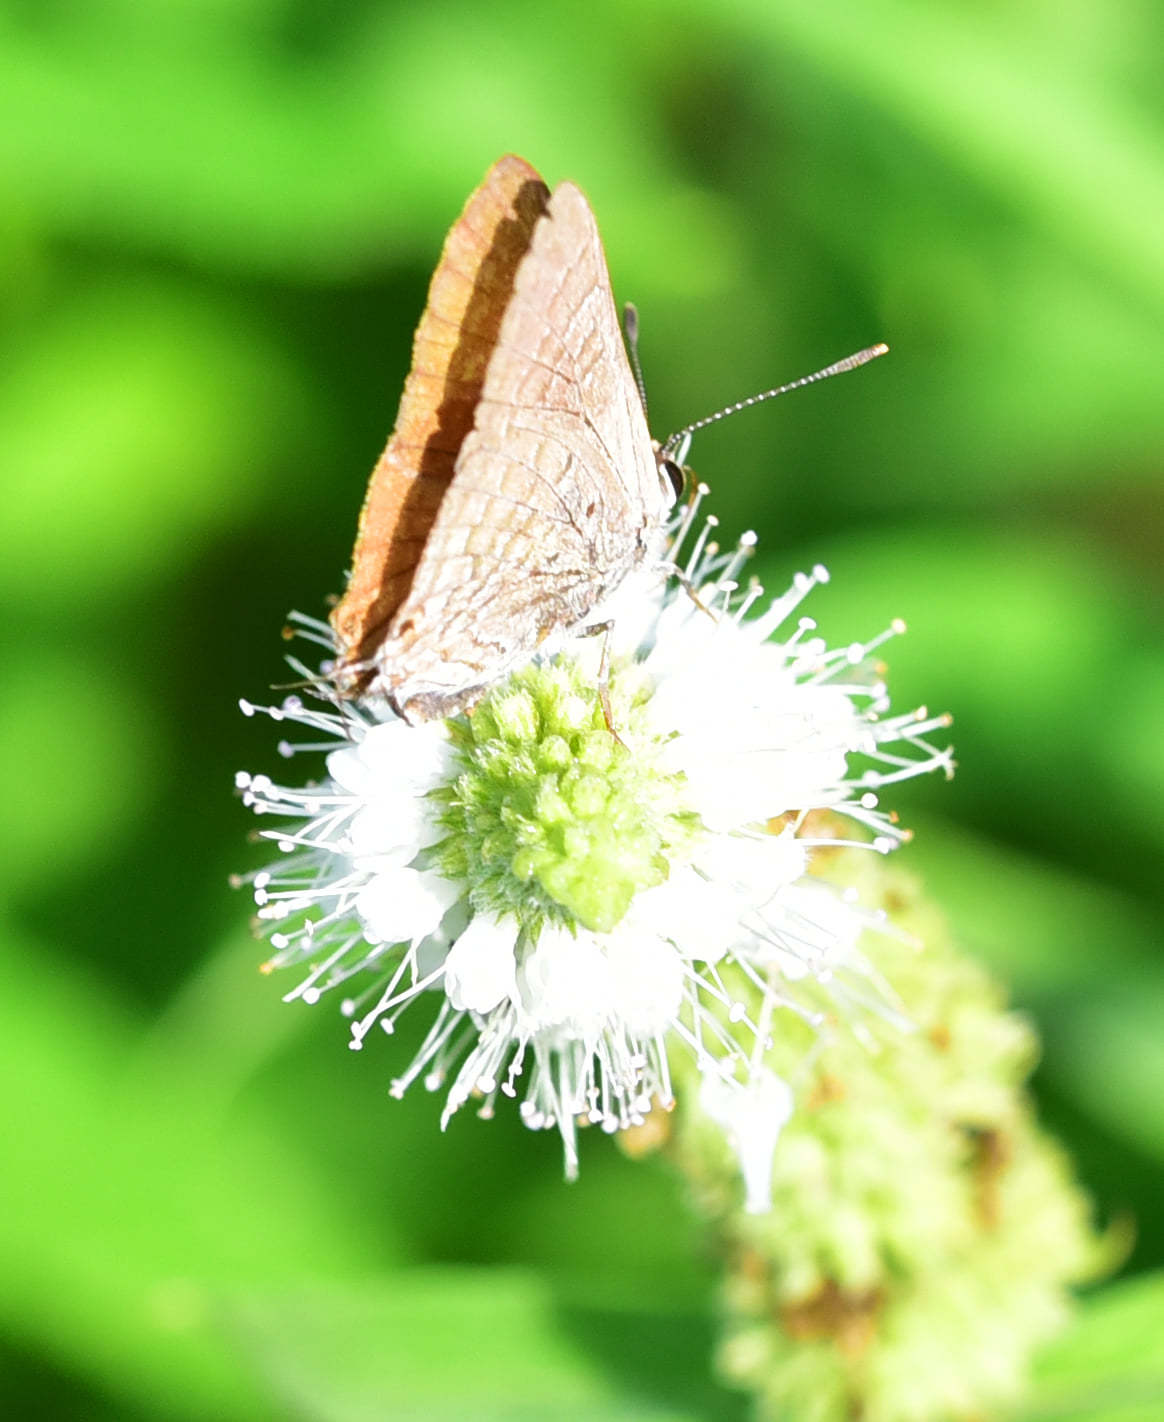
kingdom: Animalia
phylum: Arthropoda
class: Insecta
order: Lepidoptera
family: Lycaenidae
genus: Deudorix
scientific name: Deudorix antalus
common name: Brown playboy
